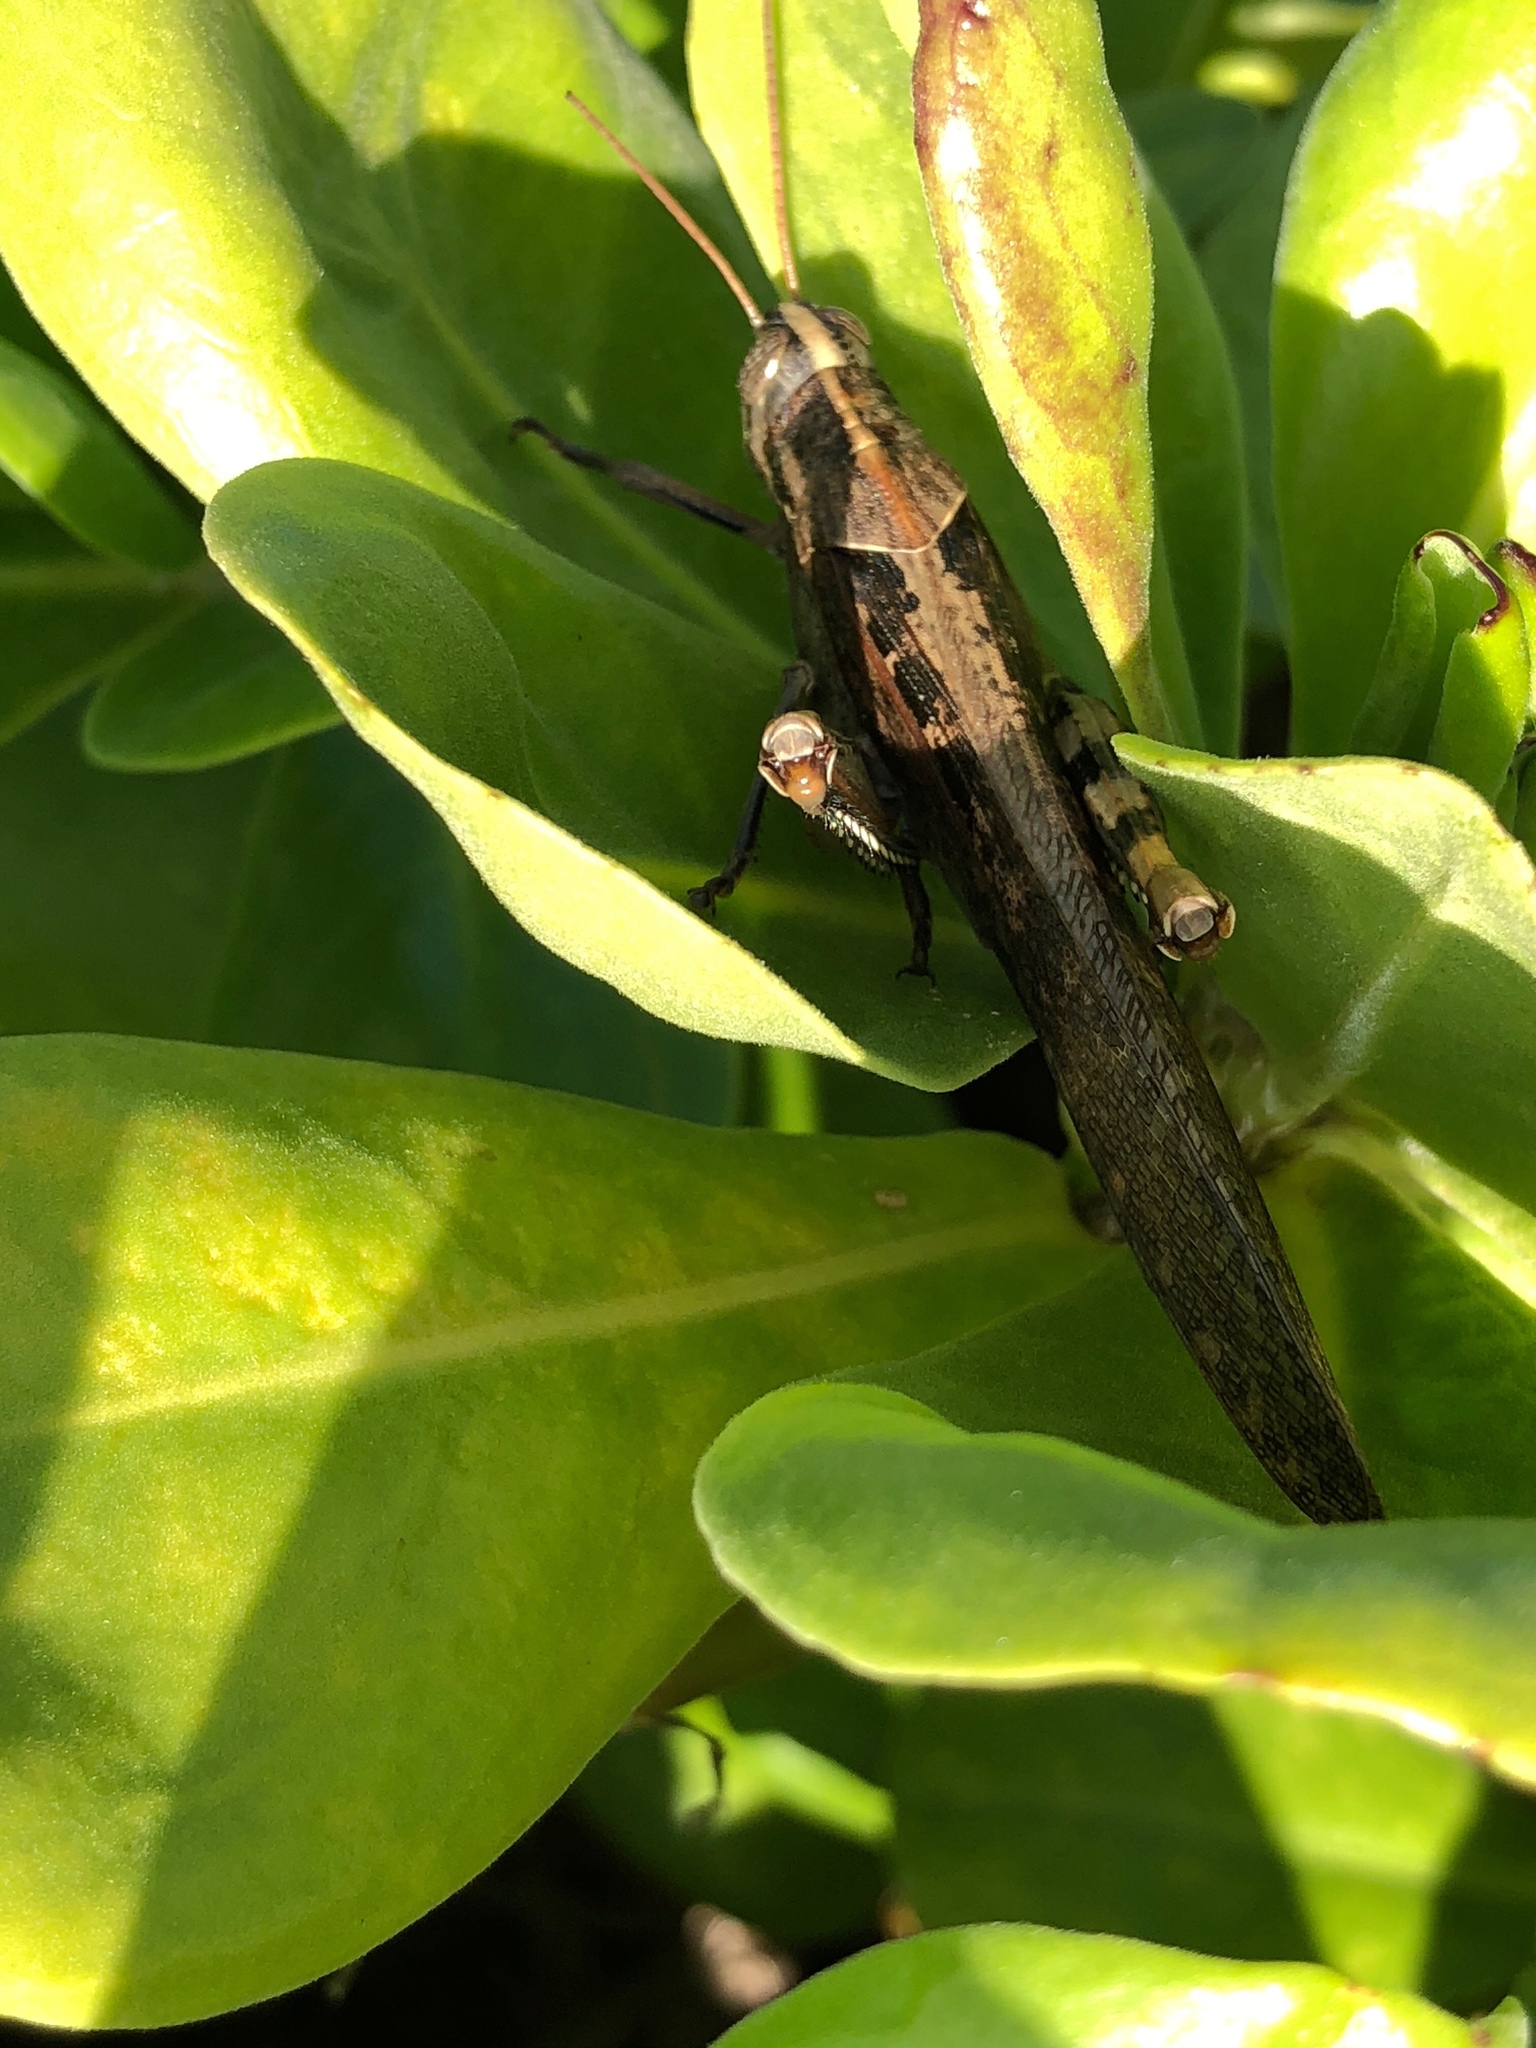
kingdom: Animalia
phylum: Arthropoda
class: Insecta
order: Orthoptera
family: Acrididae
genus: Schistocerca
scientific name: Schistocerca nitens
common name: Vagrant grasshopper
